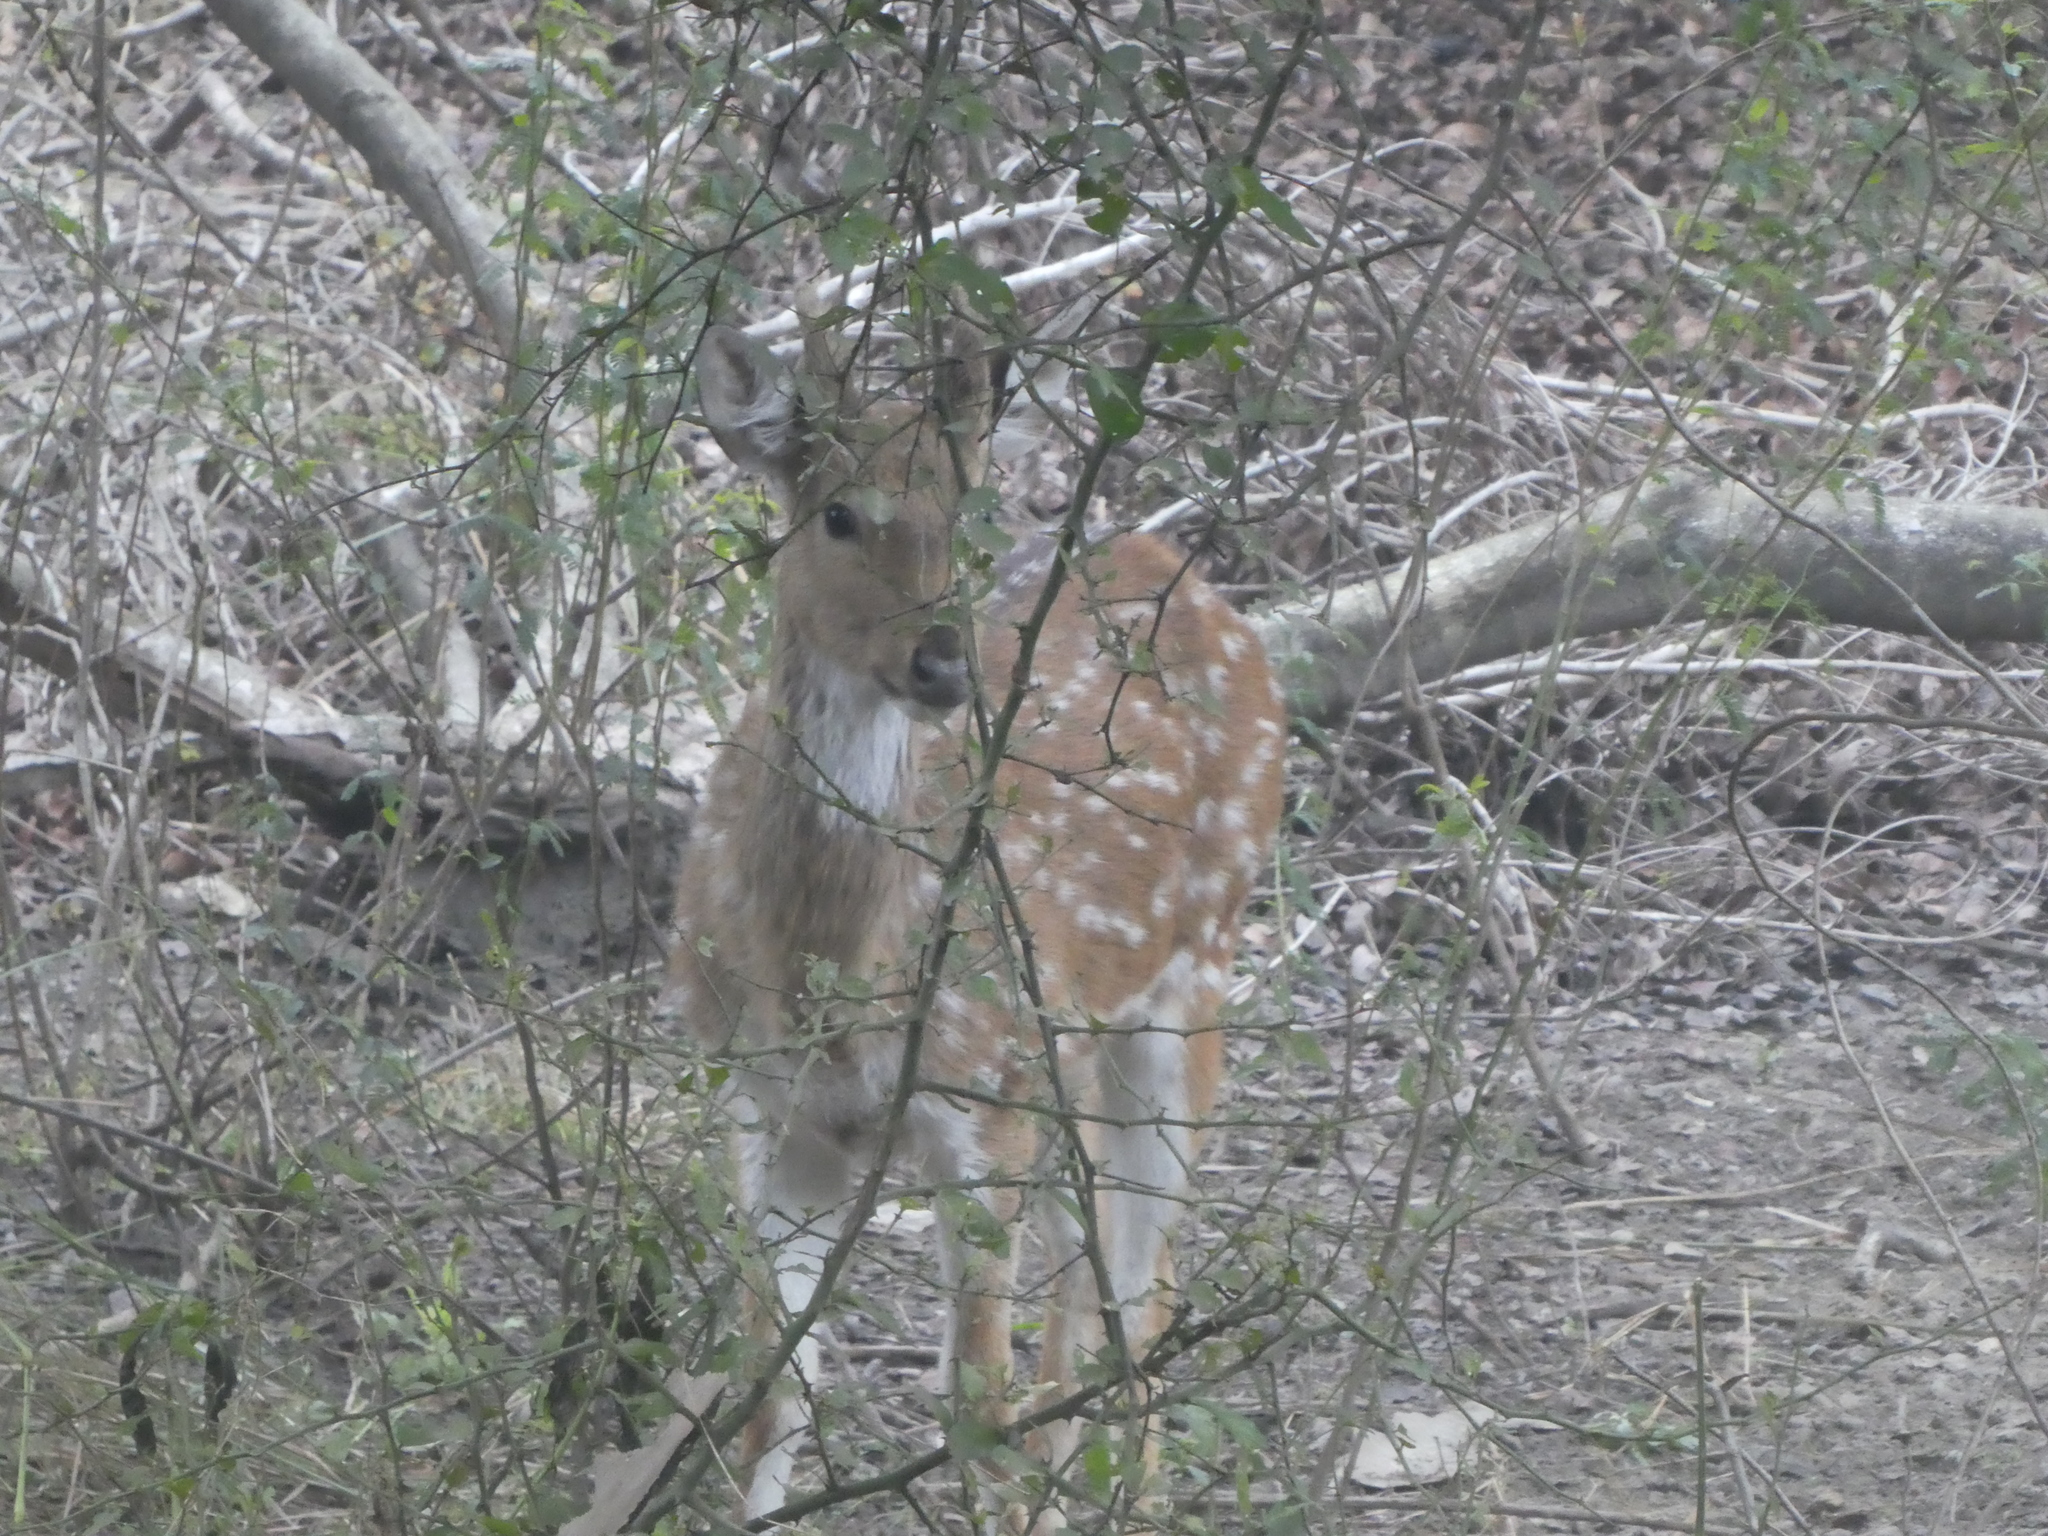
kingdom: Animalia
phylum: Chordata
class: Mammalia
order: Artiodactyla
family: Cervidae
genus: Axis
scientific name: Axis axis
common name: Chital
